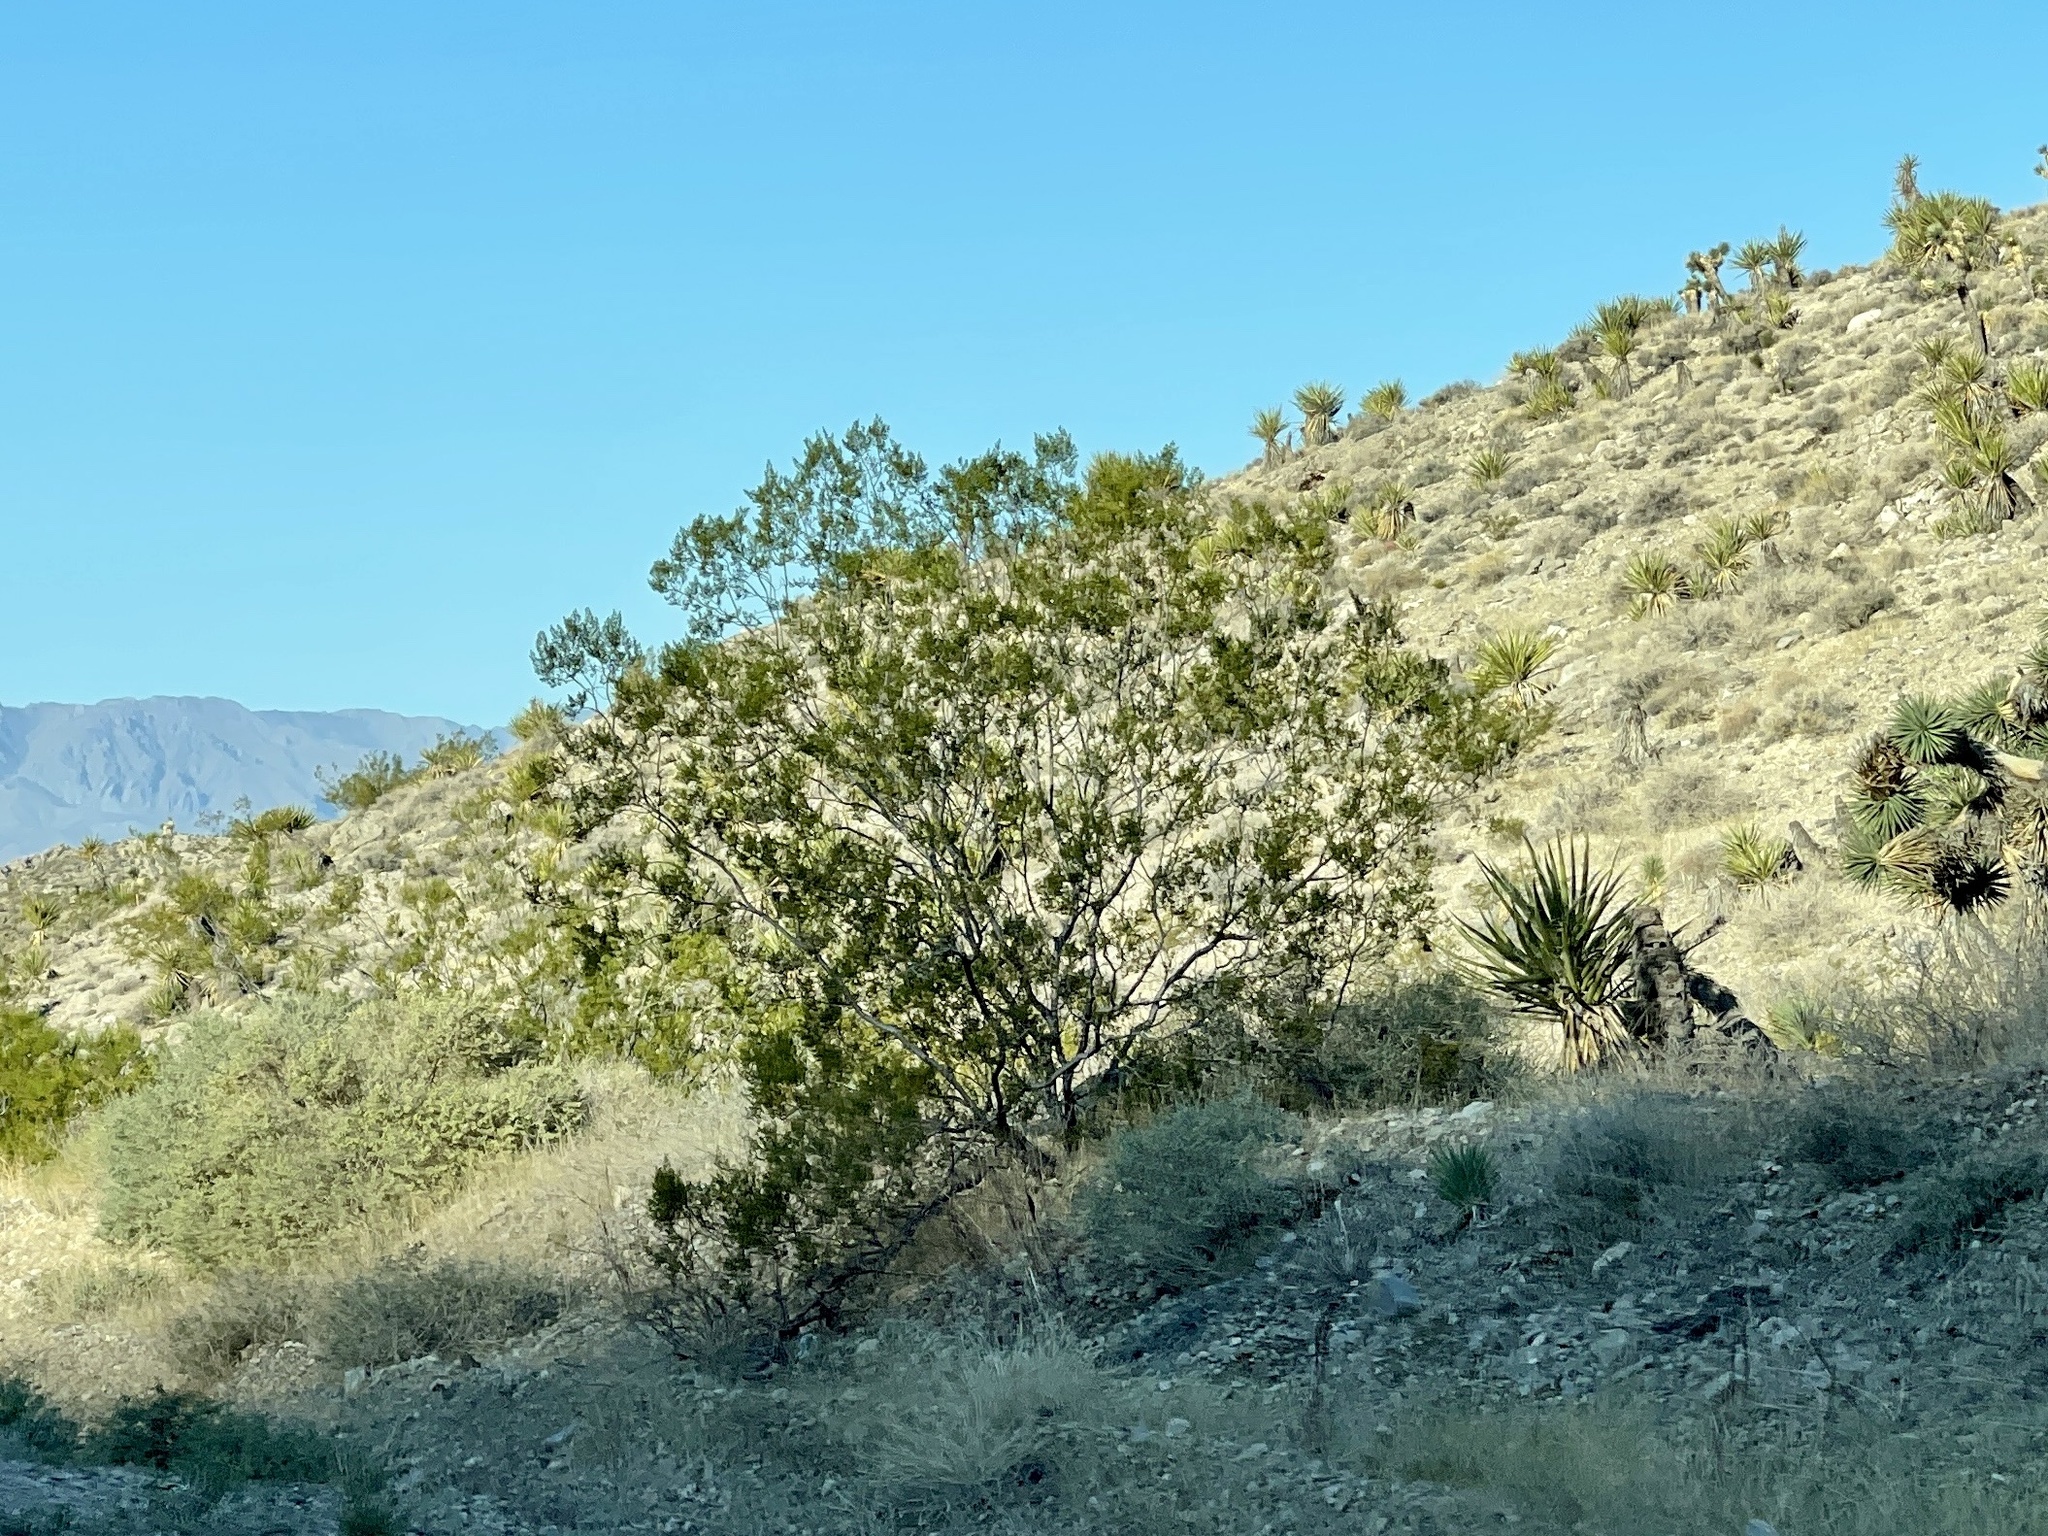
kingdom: Plantae
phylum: Tracheophyta
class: Magnoliopsida
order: Zygophyllales
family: Zygophyllaceae
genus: Larrea
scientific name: Larrea tridentata
